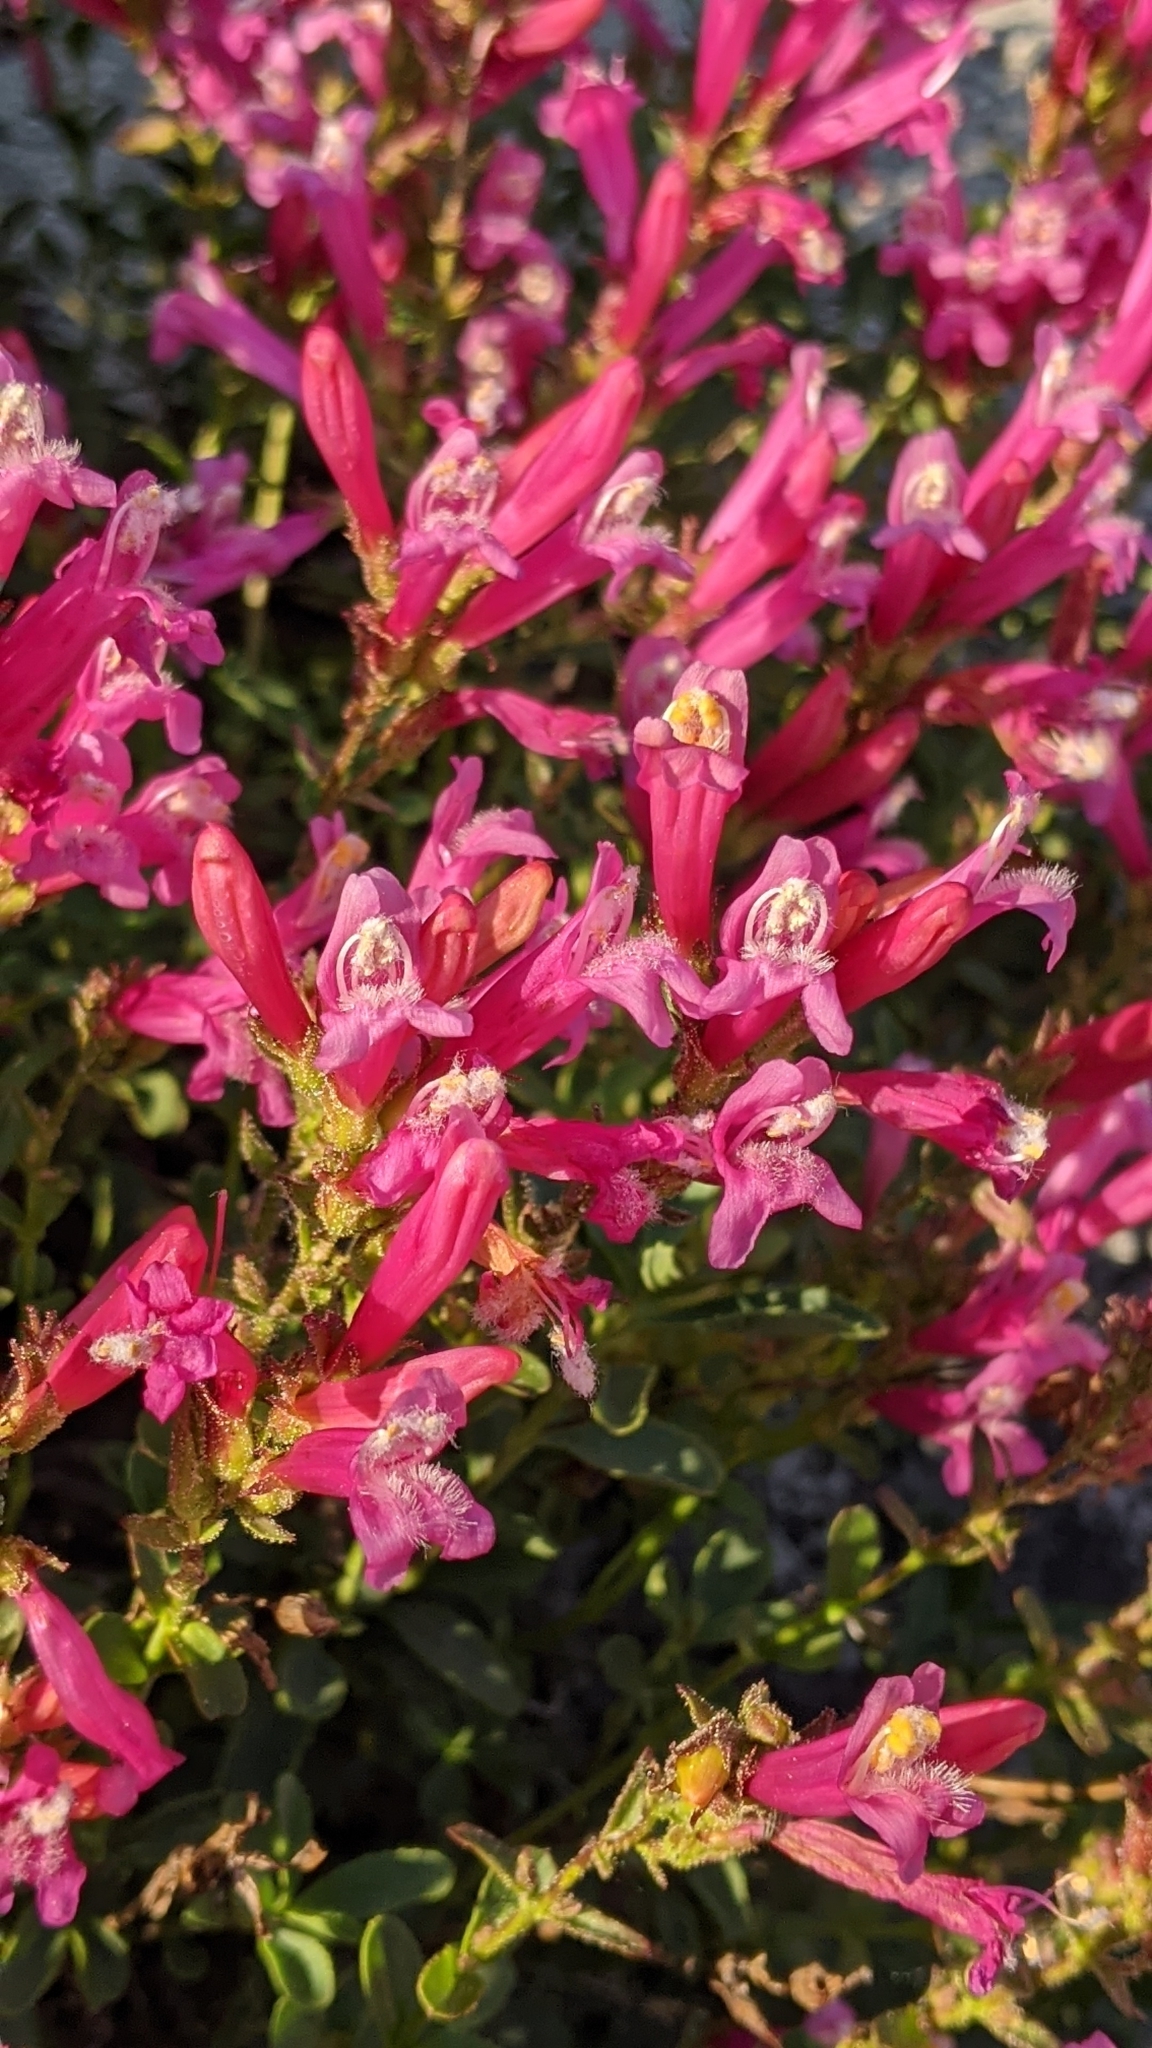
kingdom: Plantae
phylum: Tracheophyta
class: Magnoliopsida
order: Lamiales
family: Plantaginaceae
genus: Penstemon
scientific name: Penstemon newberryi
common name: Mountain-pride
